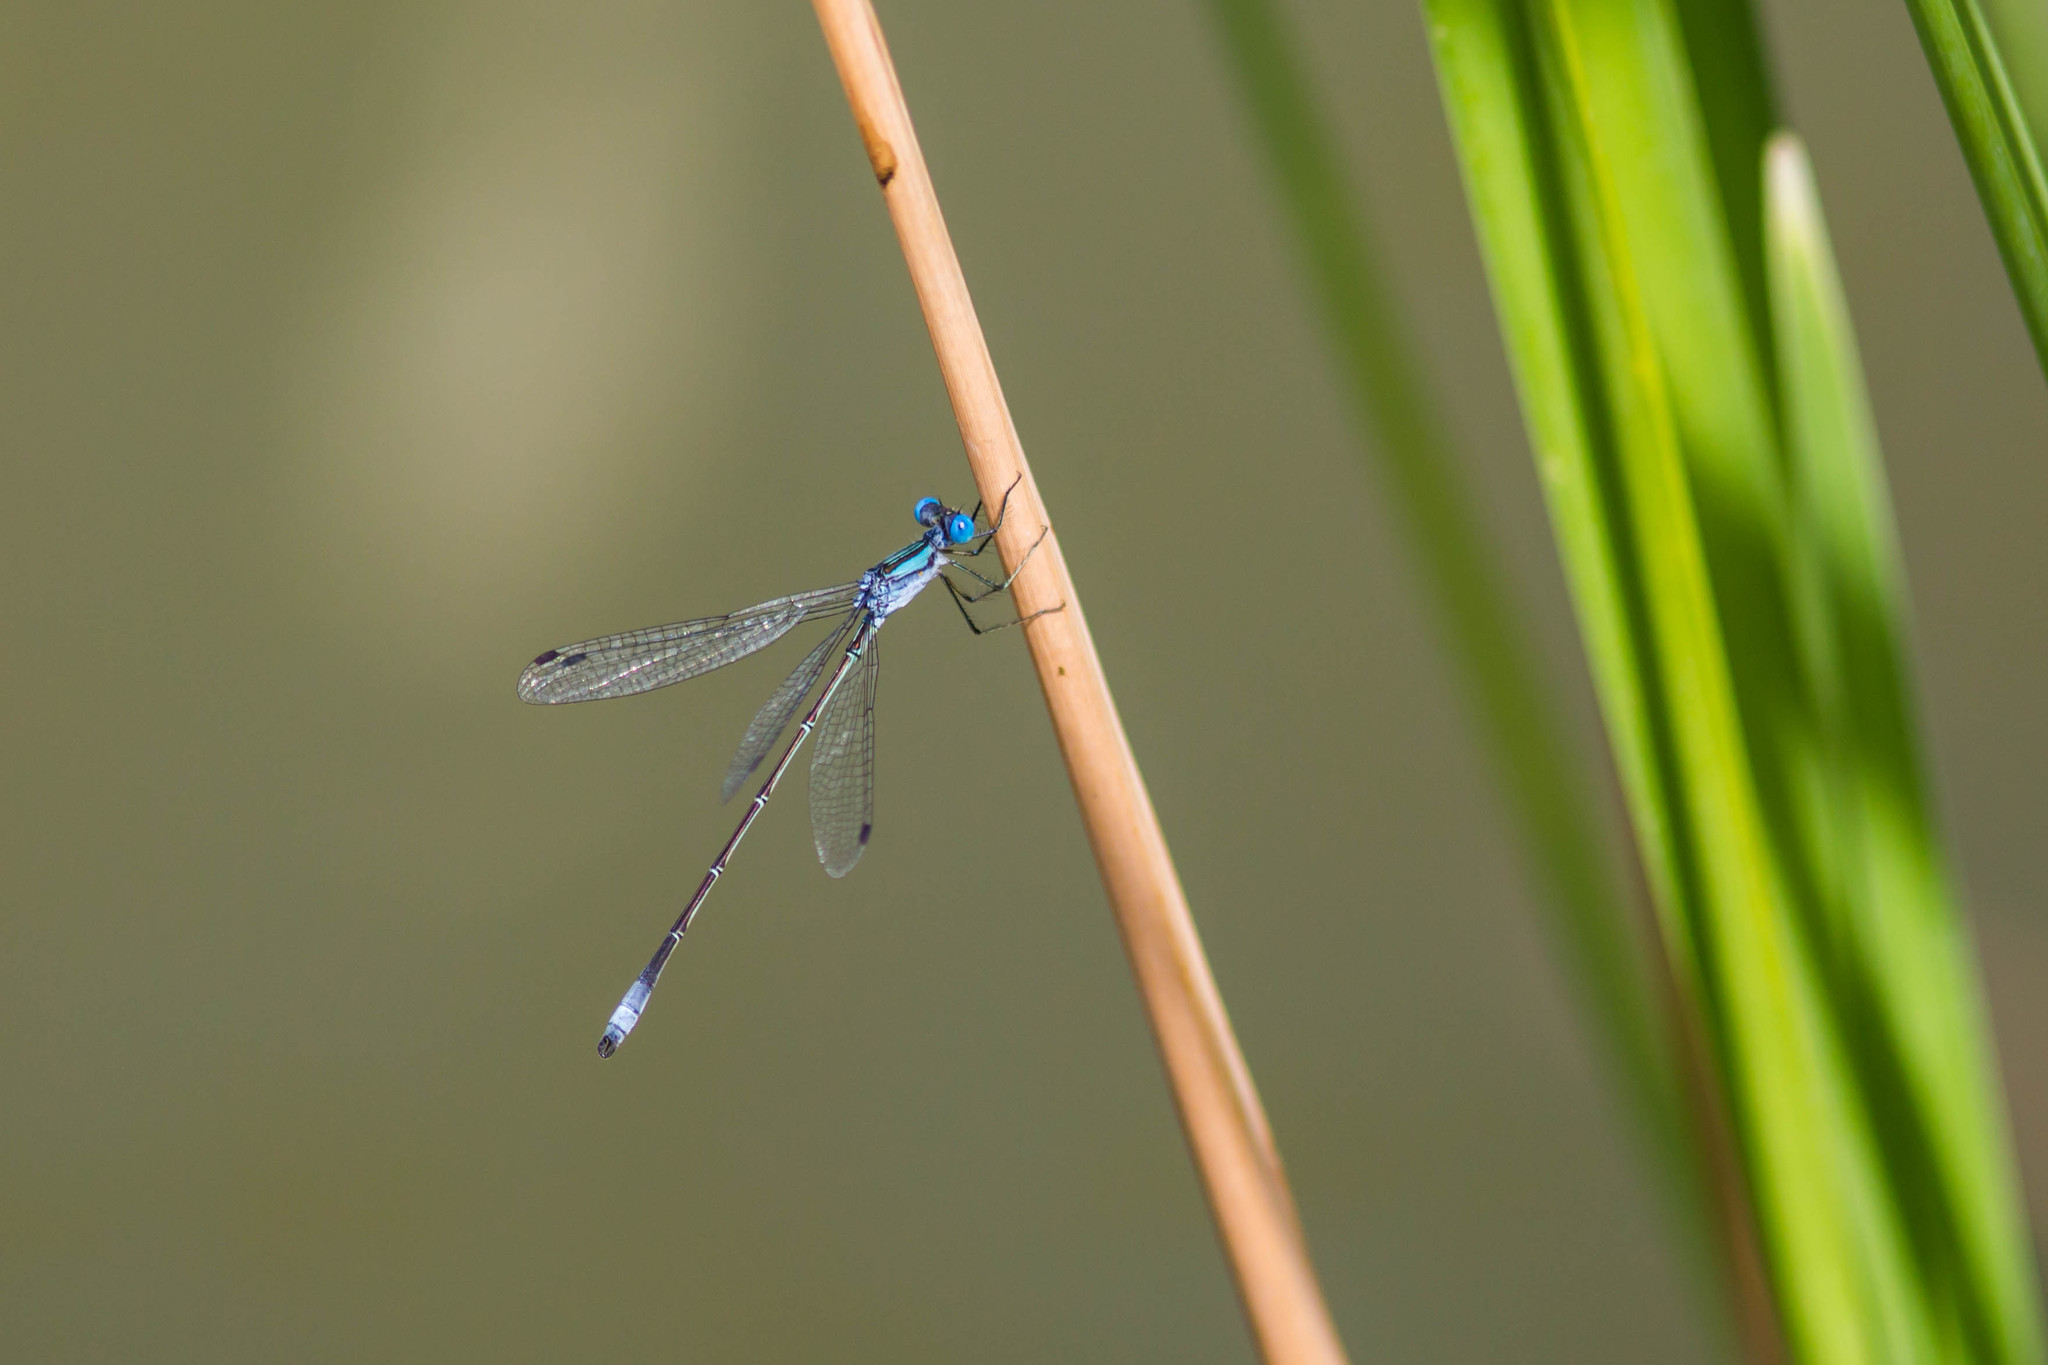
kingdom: Animalia
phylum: Arthropoda
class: Insecta
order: Odonata
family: Lestidae
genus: Lestes
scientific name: Lestes forficula
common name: Rainpool spreadwing
